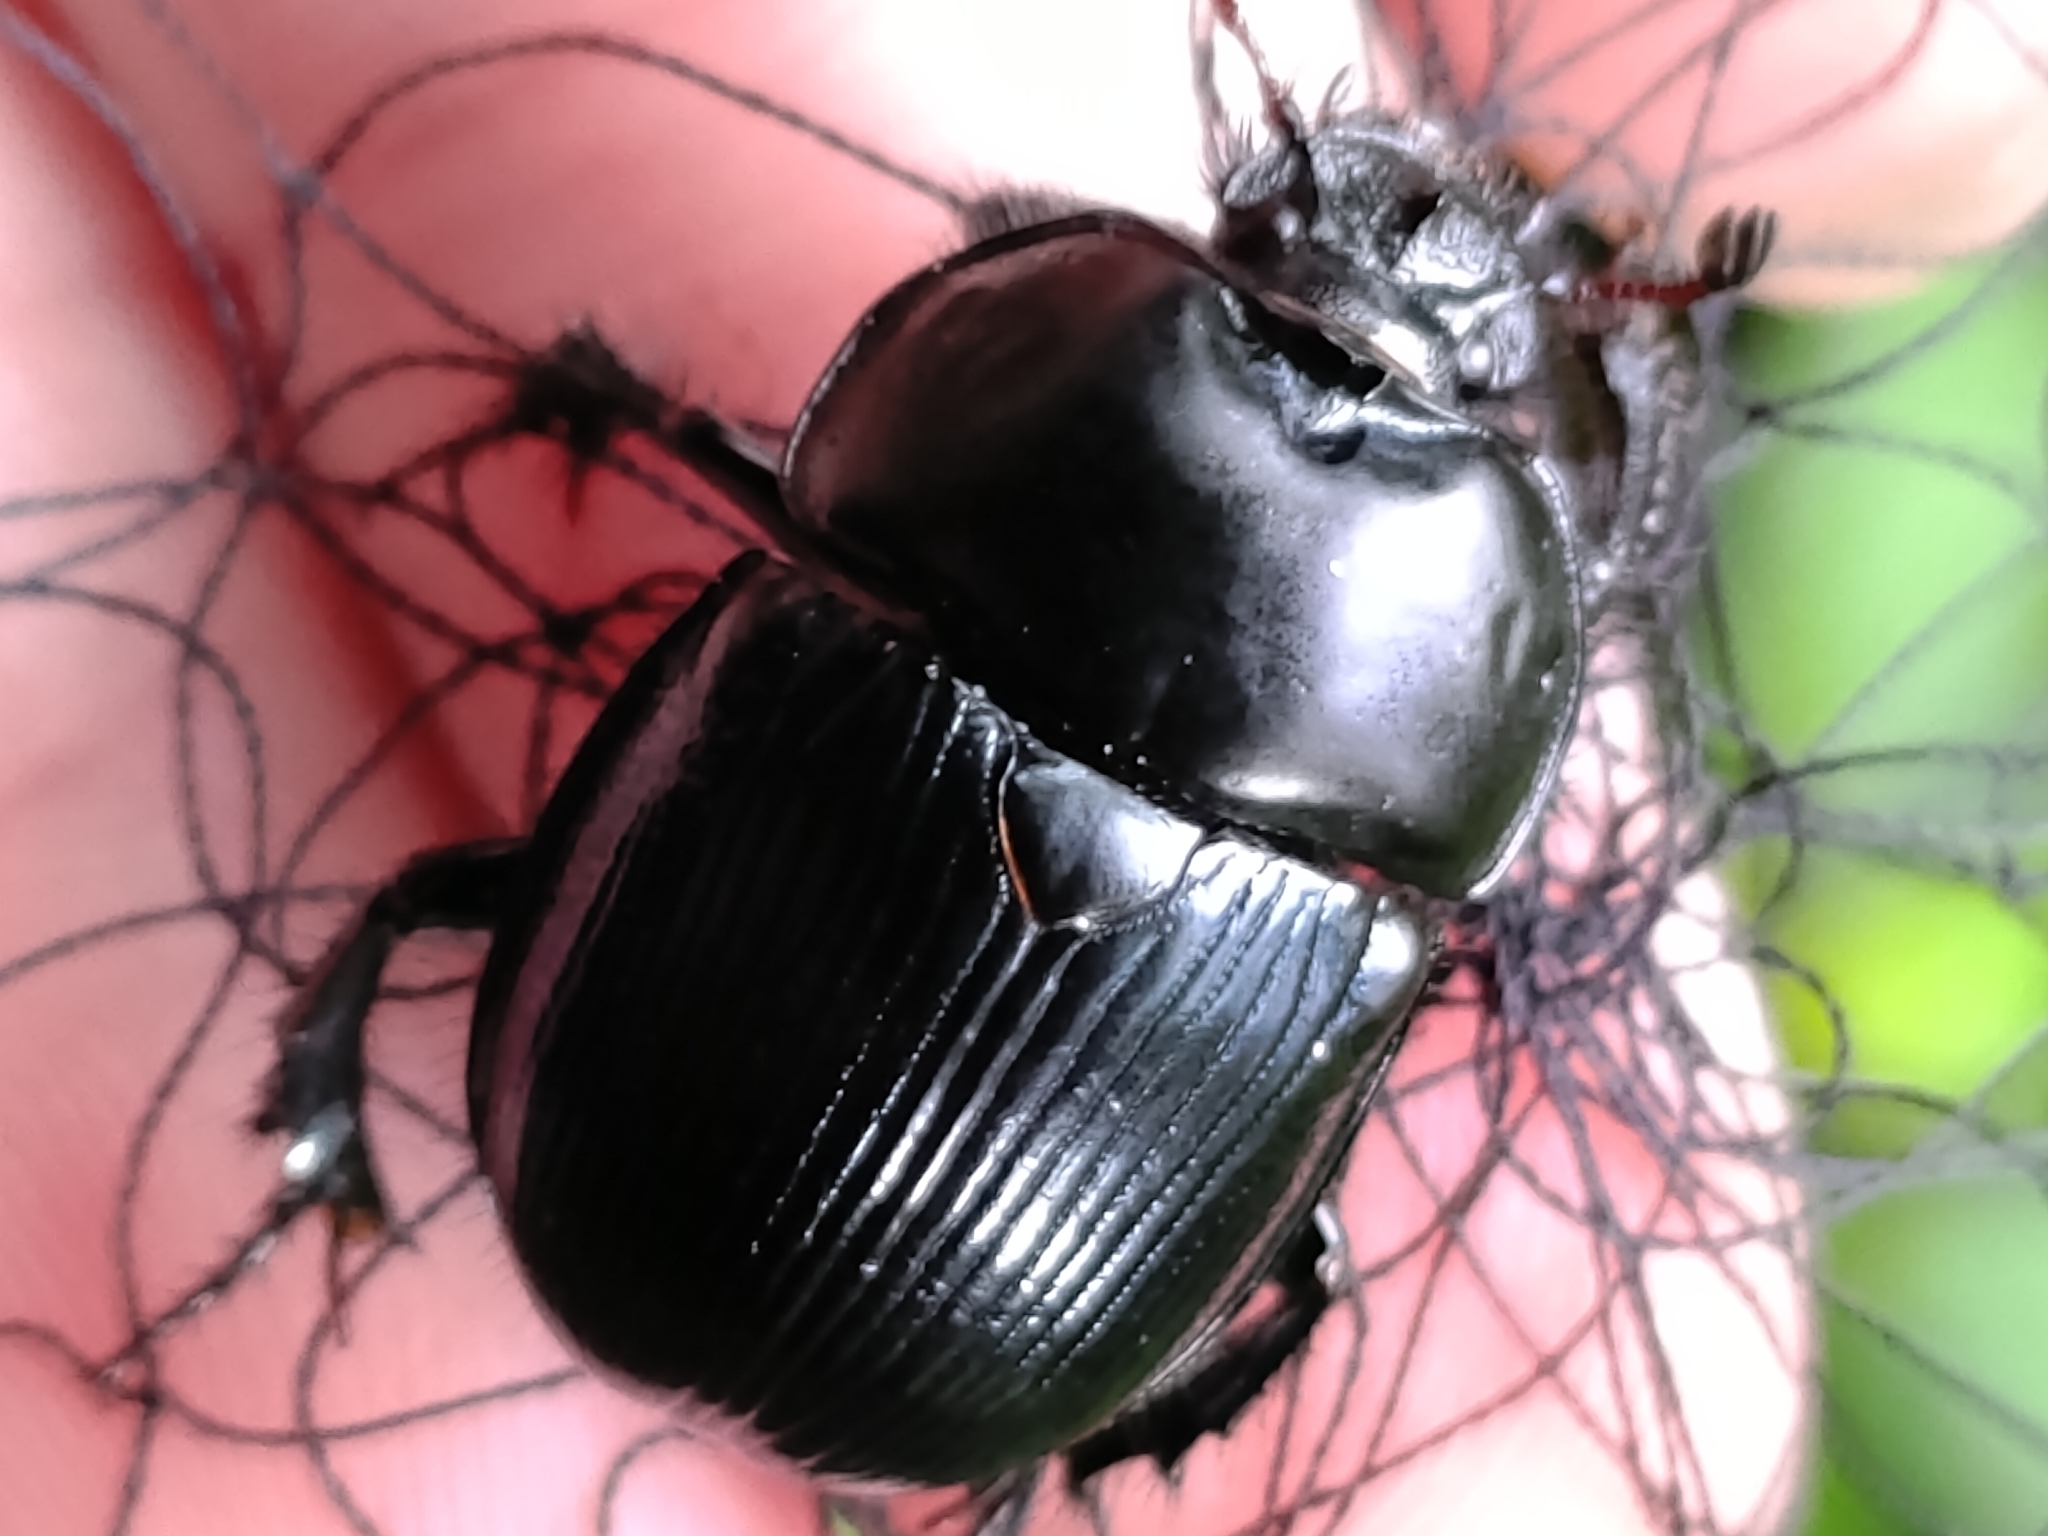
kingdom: Animalia
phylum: Arthropoda
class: Insecta
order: Coleoptera
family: Geotrupidae
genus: Phelotrupes
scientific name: Phelotrupes insulanus
